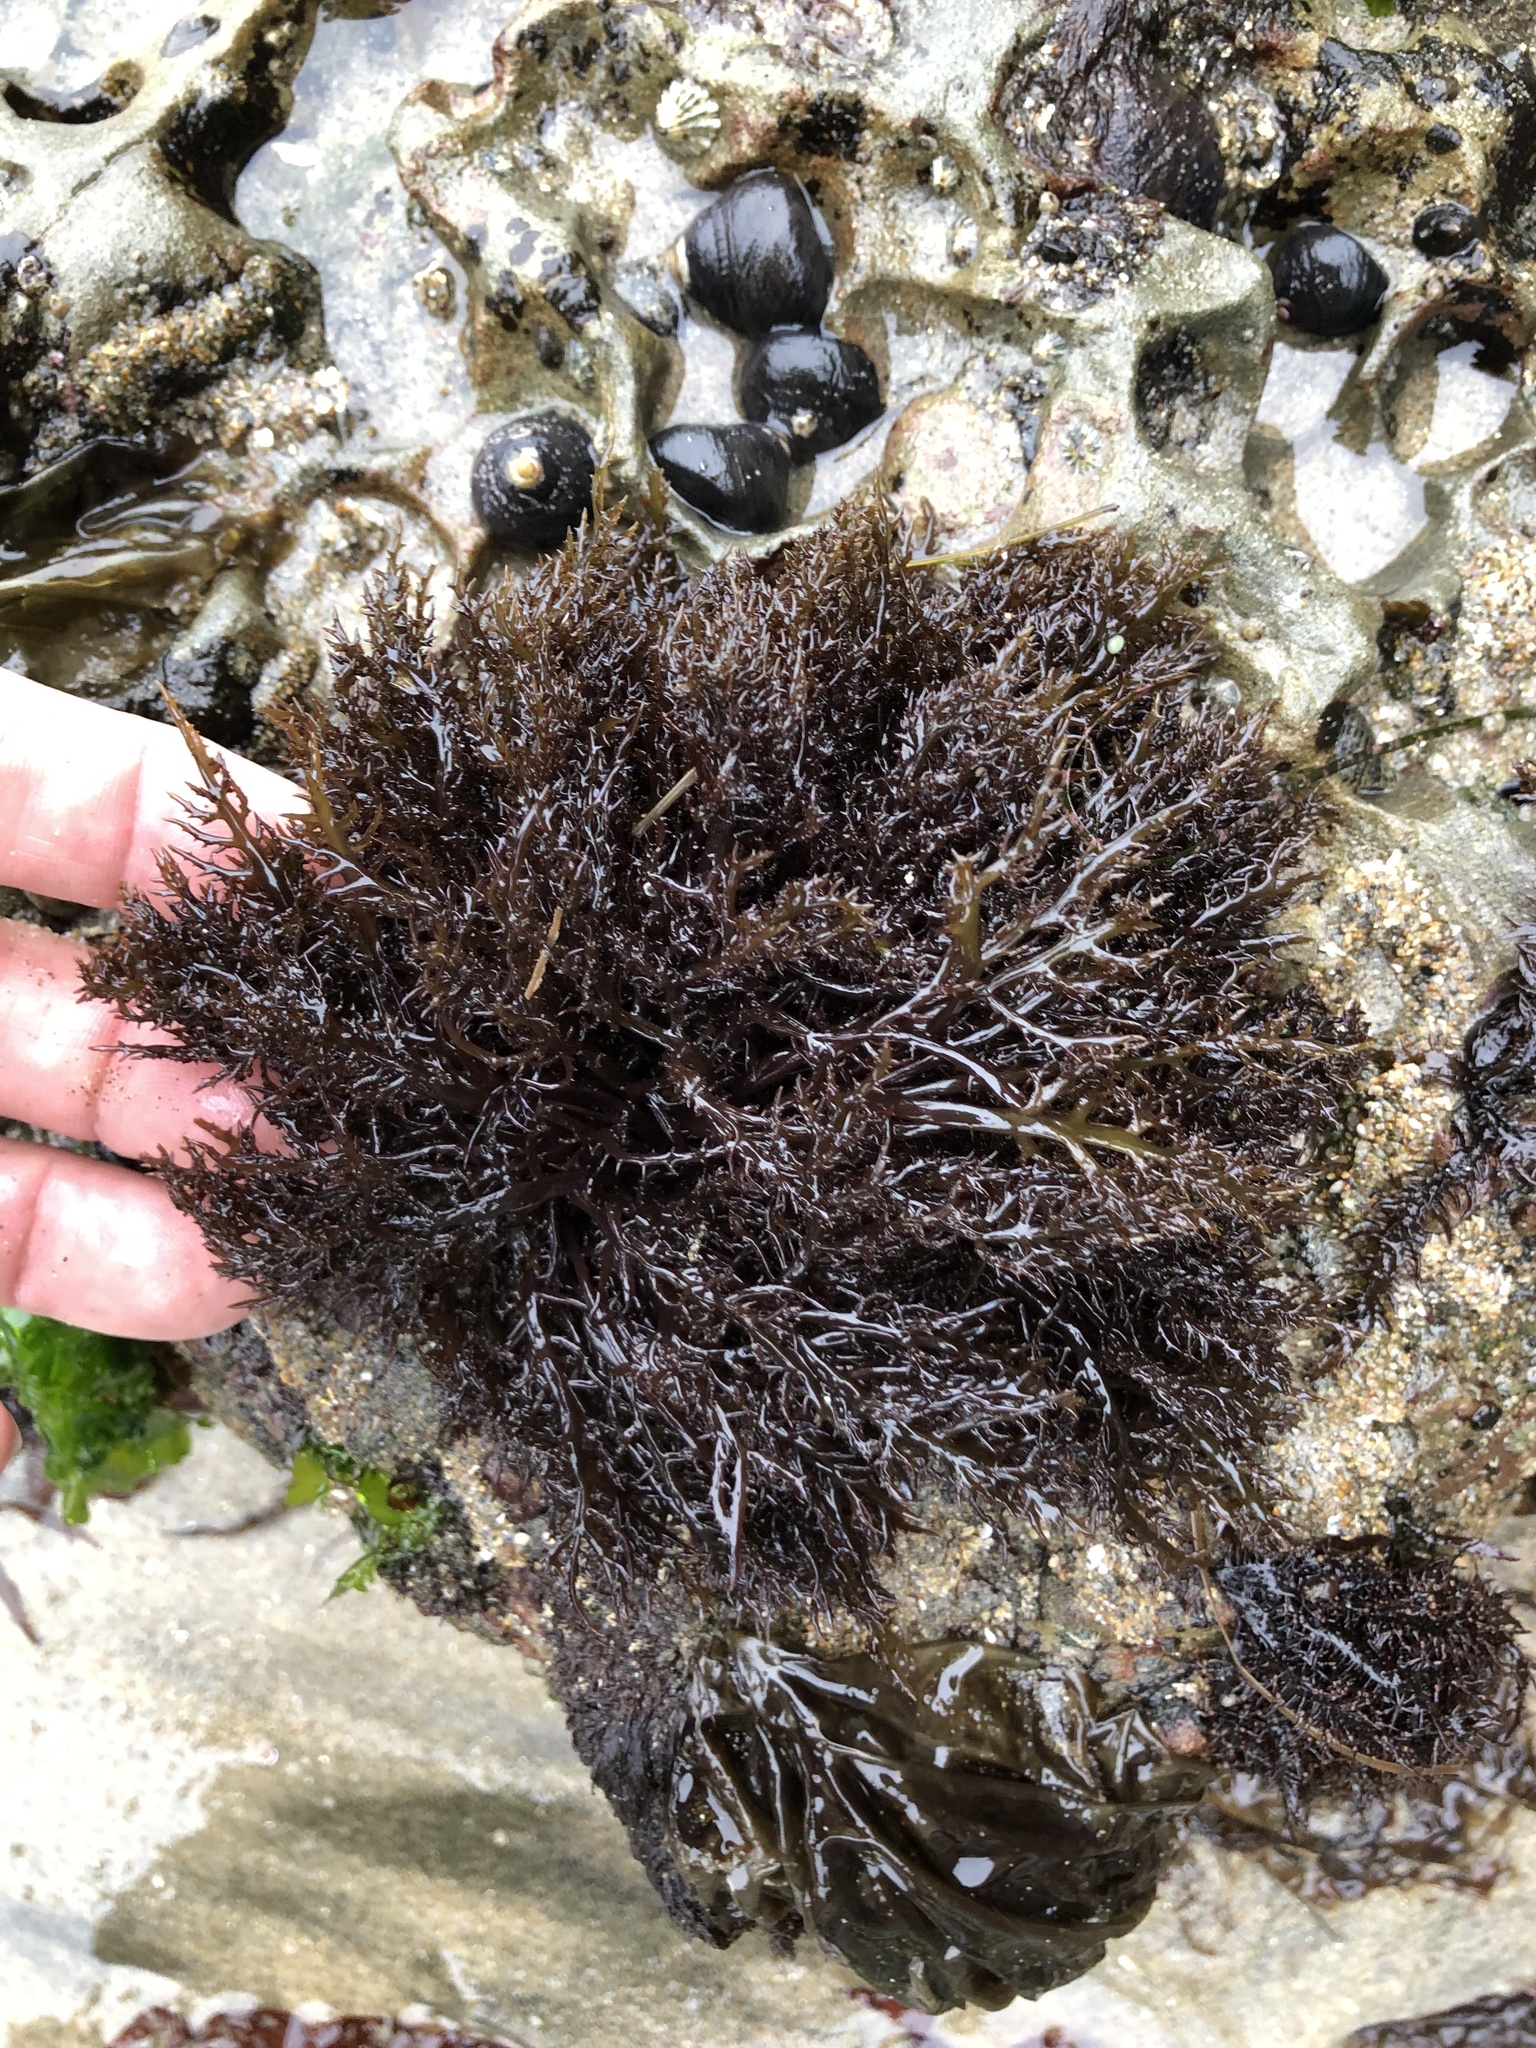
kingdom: Plantae
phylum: Rhodophyta
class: Florideophyceae
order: Gigartinales
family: Gigartinaceae
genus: Chondracanthus
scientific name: Chondracanthus canaliculatus
